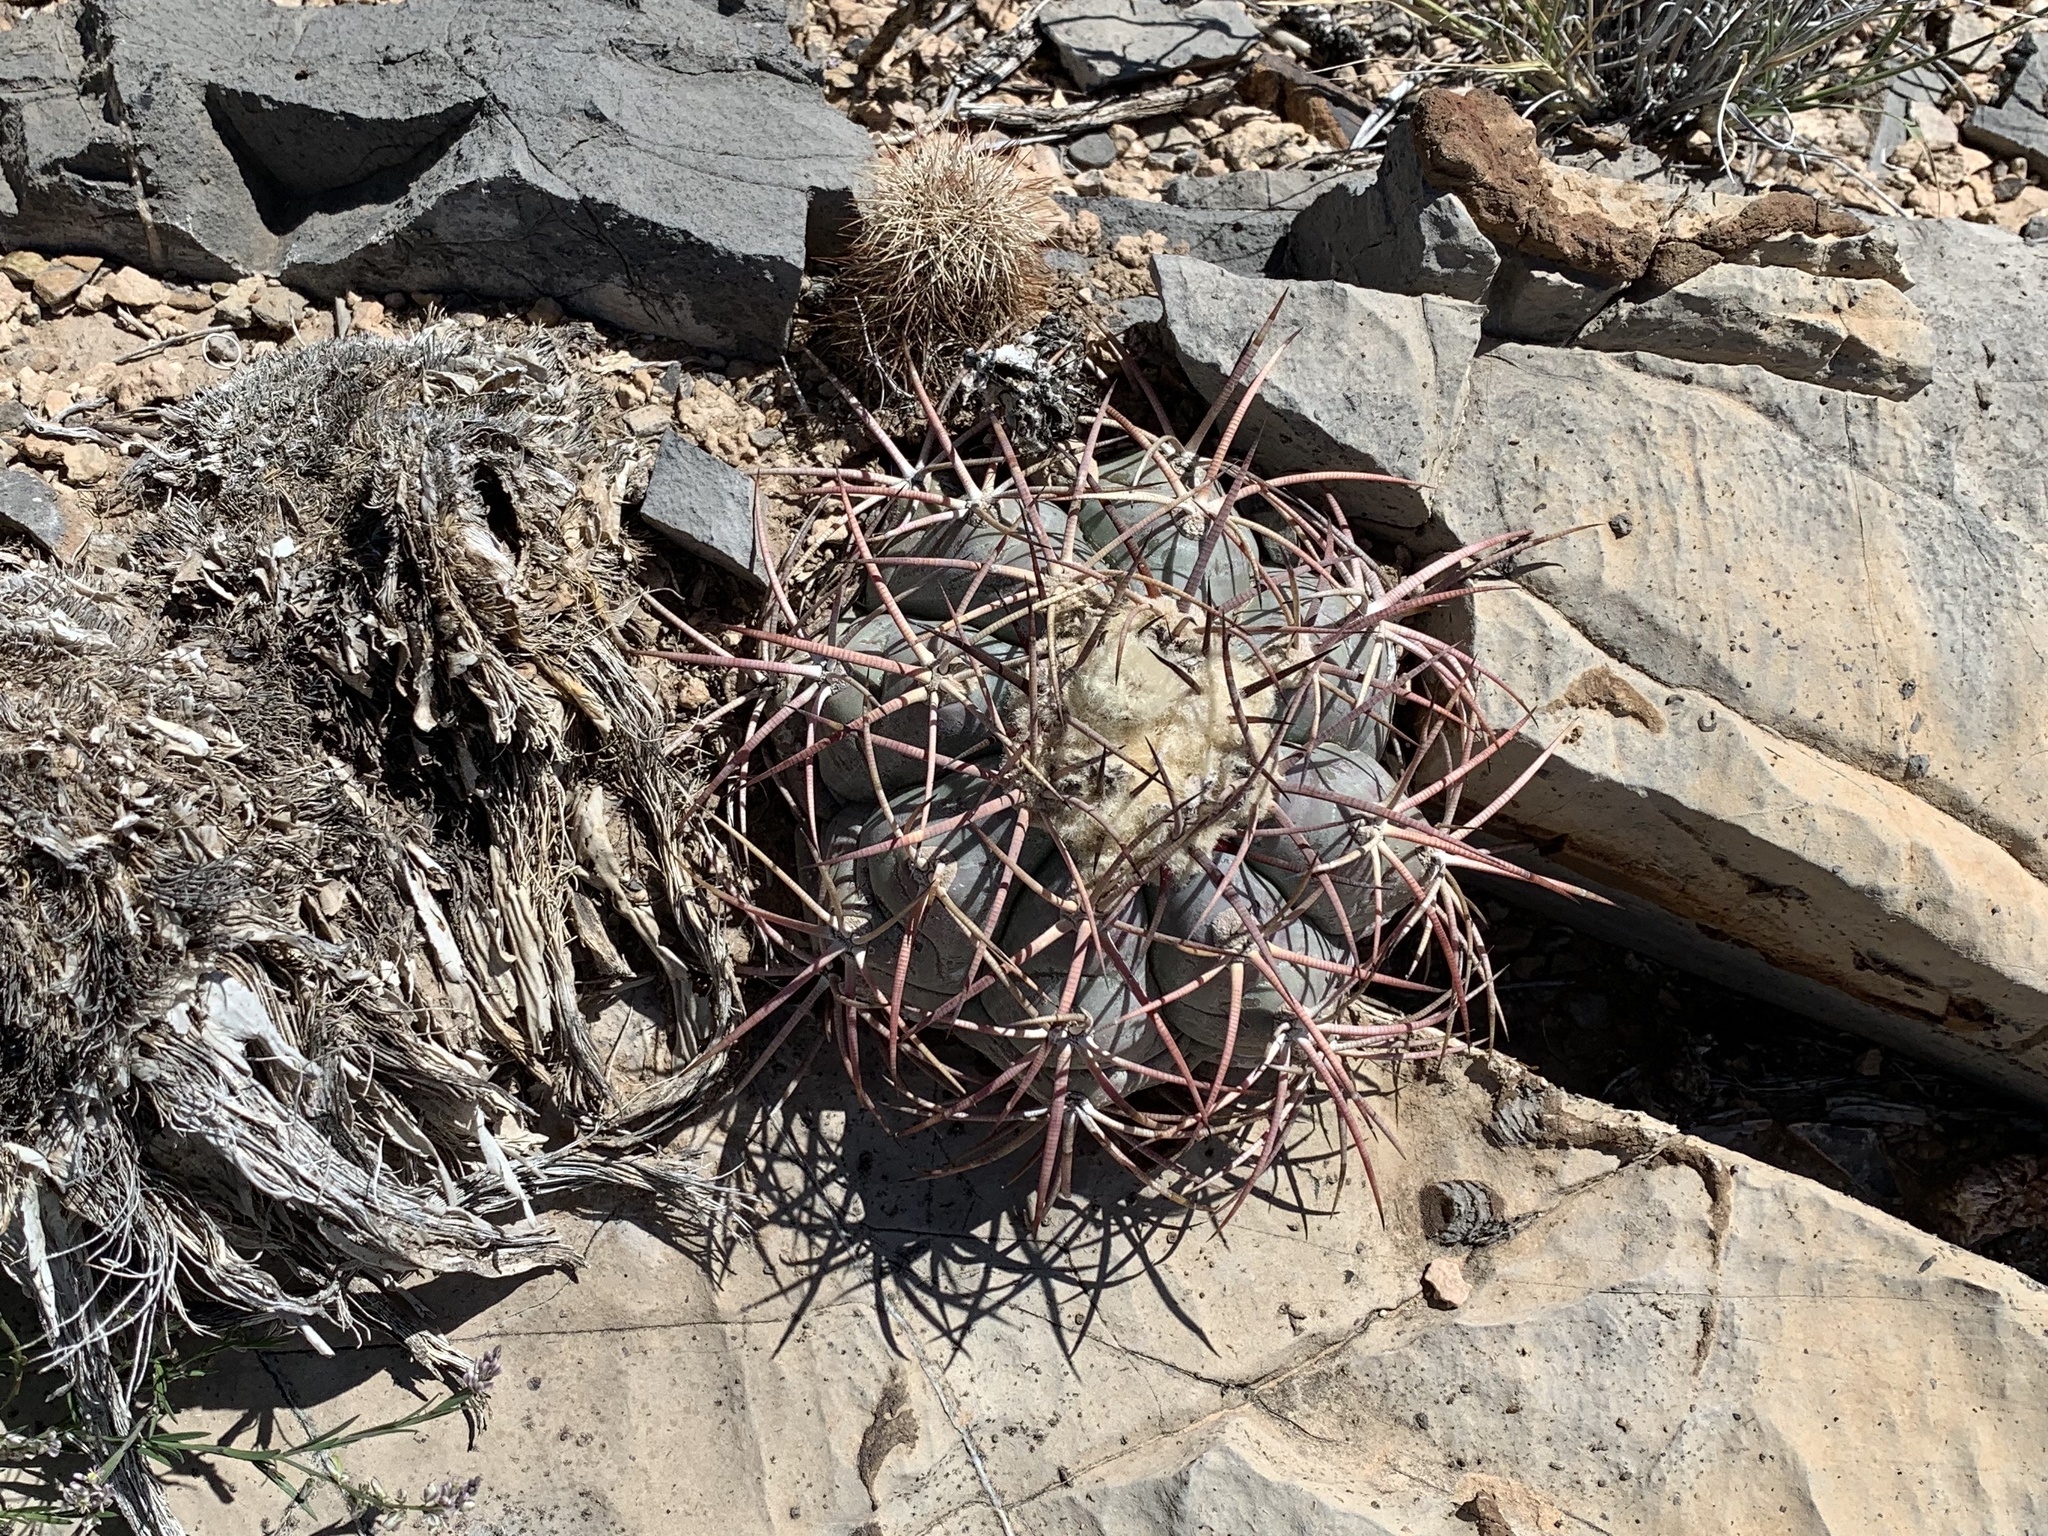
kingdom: Plantae
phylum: Tracheophyta
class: Magnoliopsida
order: Caryophyllales
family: Cactaceae
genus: Echinocactus
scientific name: Echinocactus horizonthalonius
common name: Devilshead
